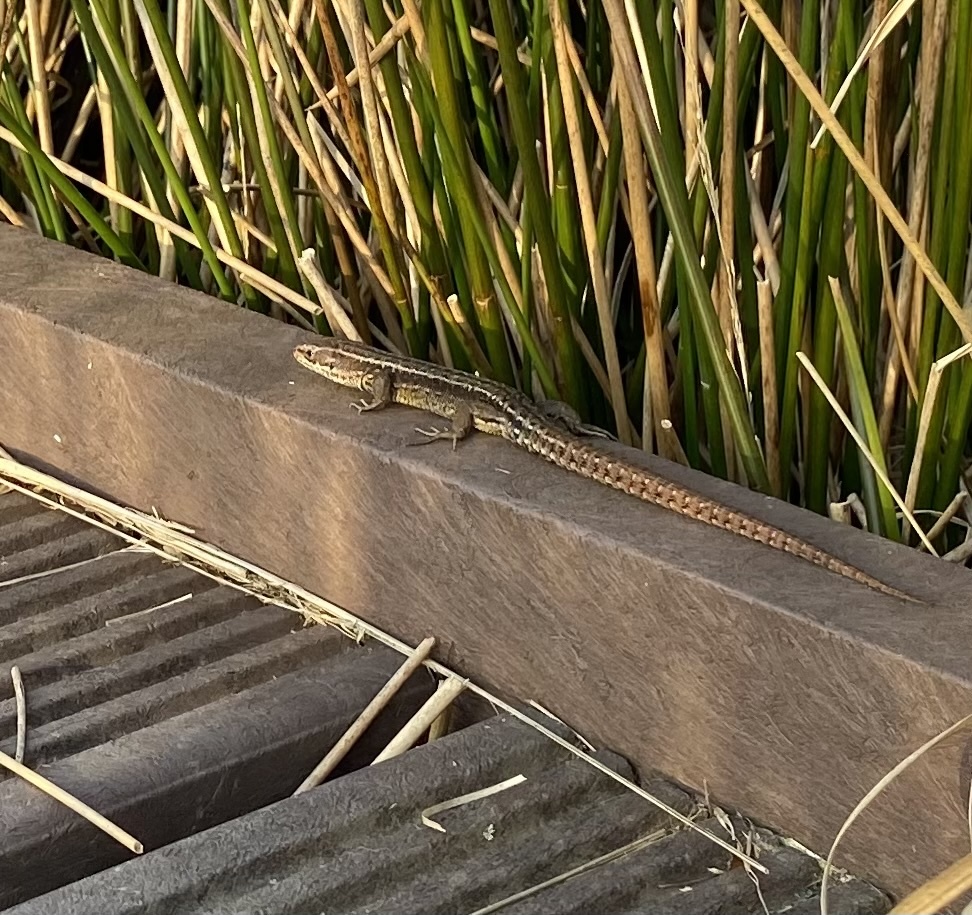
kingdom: Animalia
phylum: Chordata
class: Squamata
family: Lacertidae
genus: Zootoca
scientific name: Zootoca vivipara
